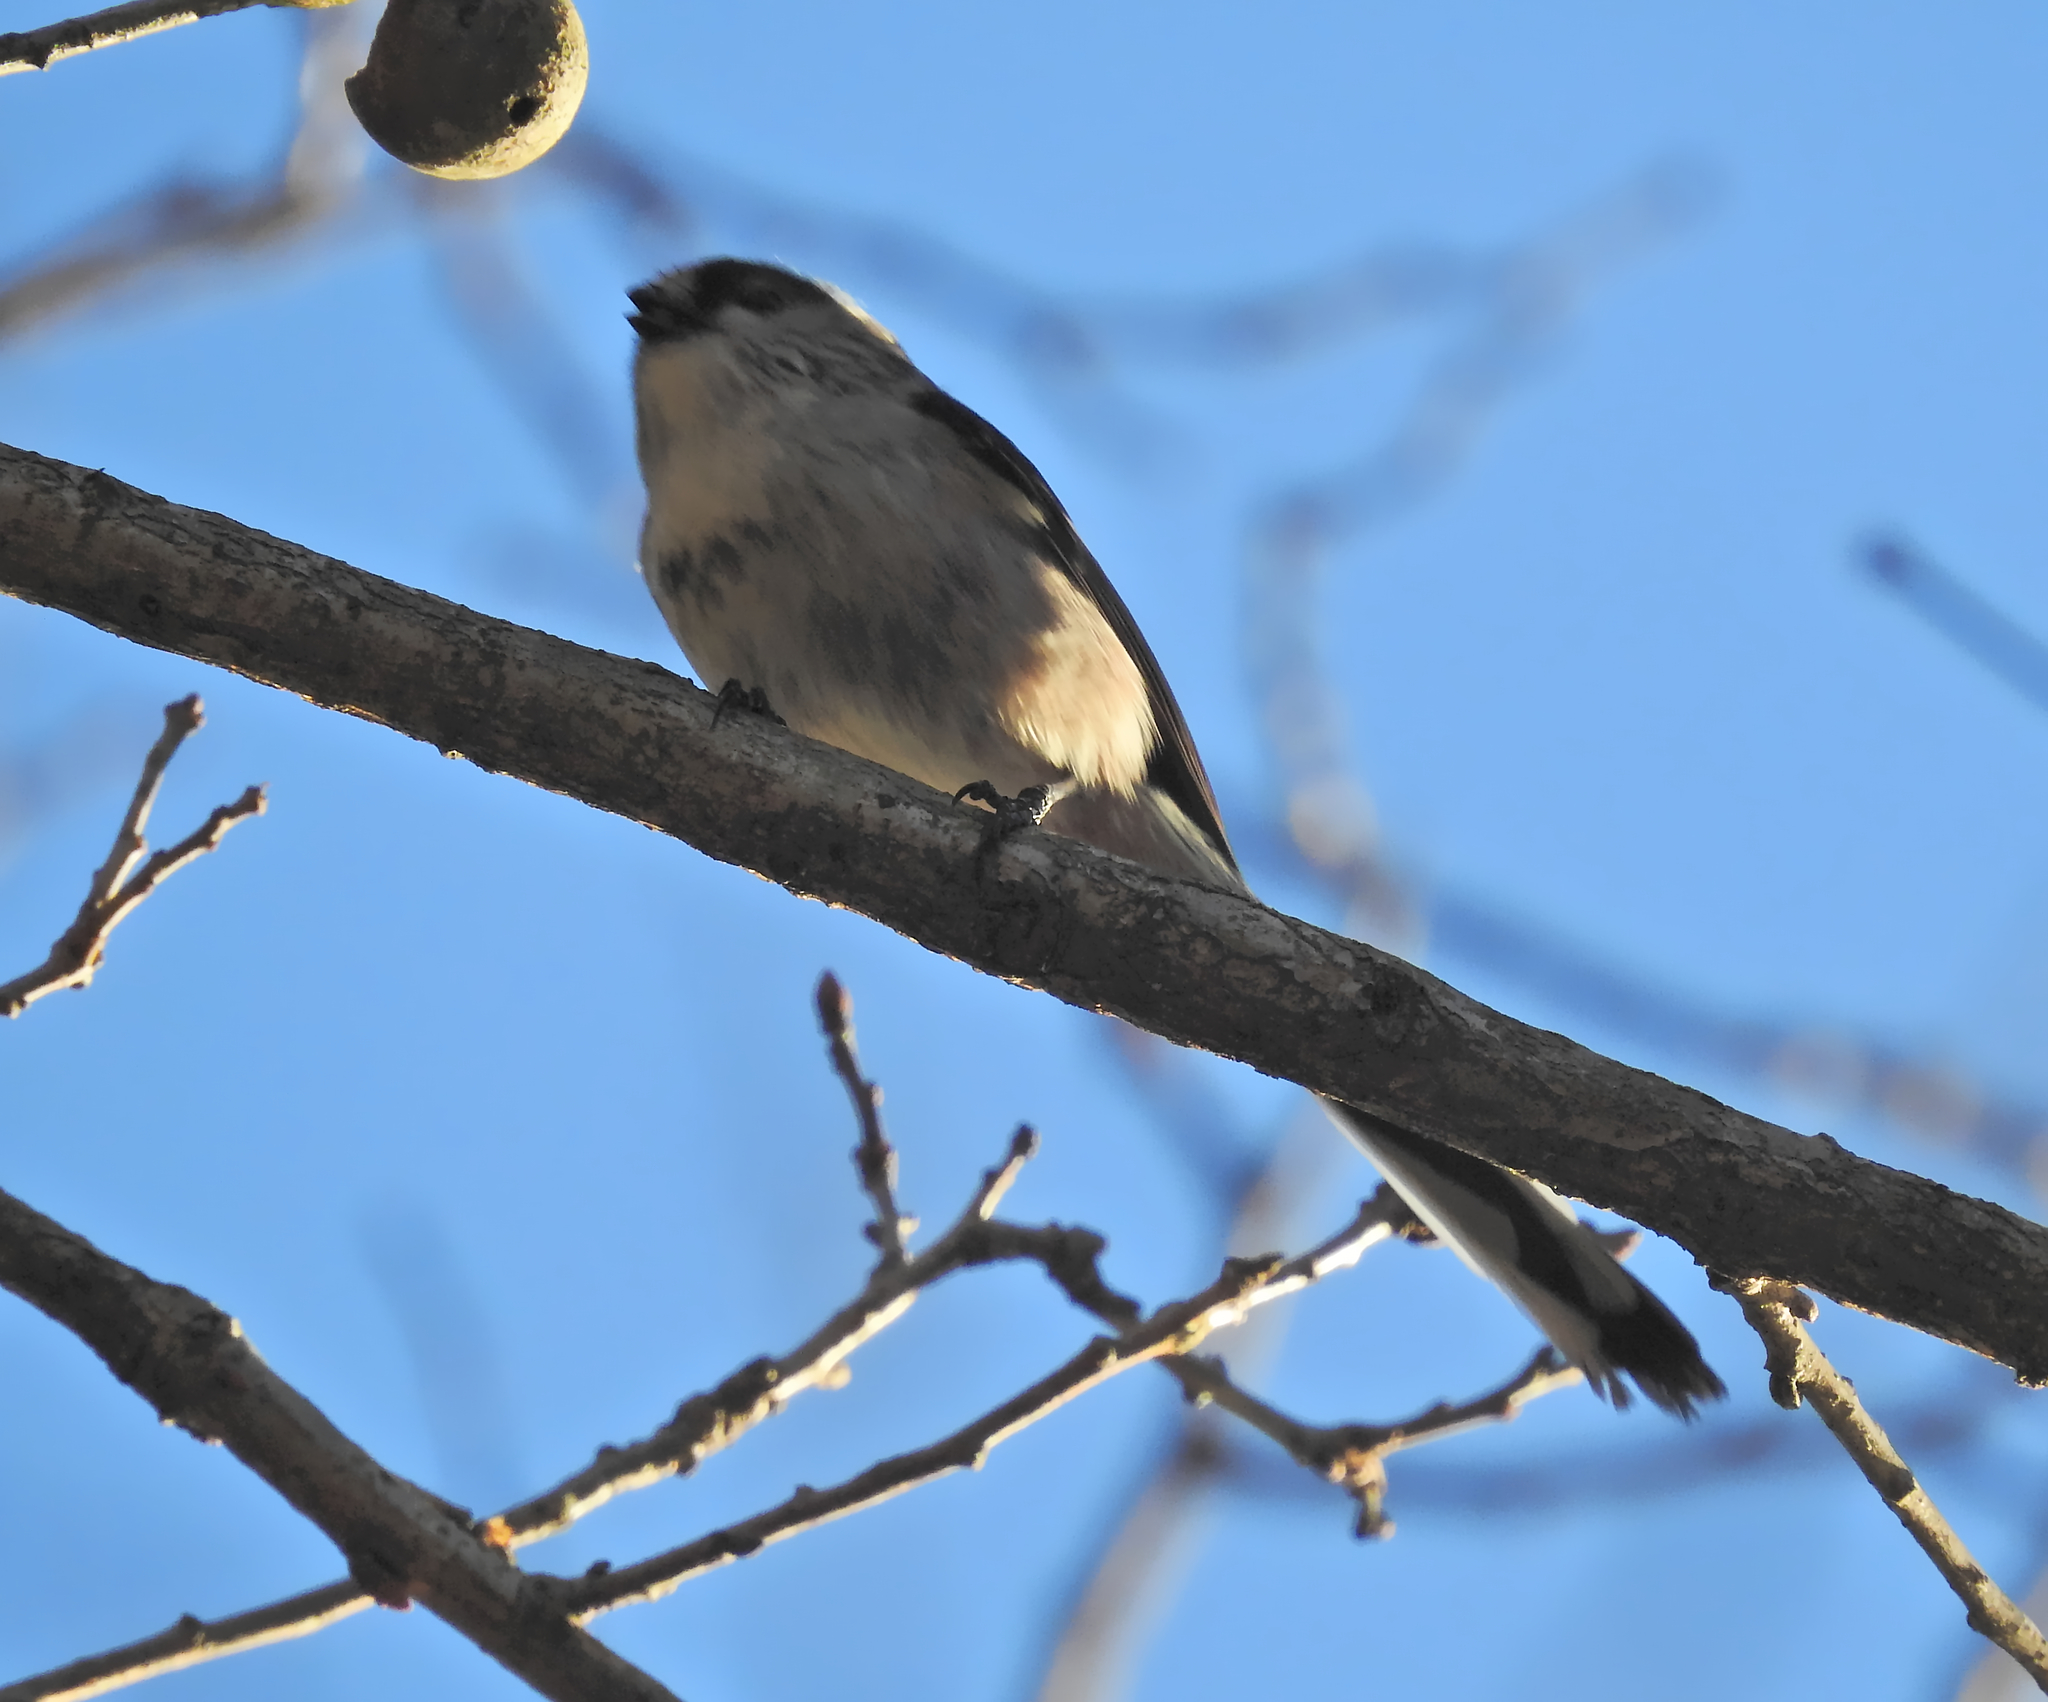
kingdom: Animalia
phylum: Chordata
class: Aves
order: Passeriformes
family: Aegithalidae
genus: Aegithalos
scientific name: Aegithalos caudatus
